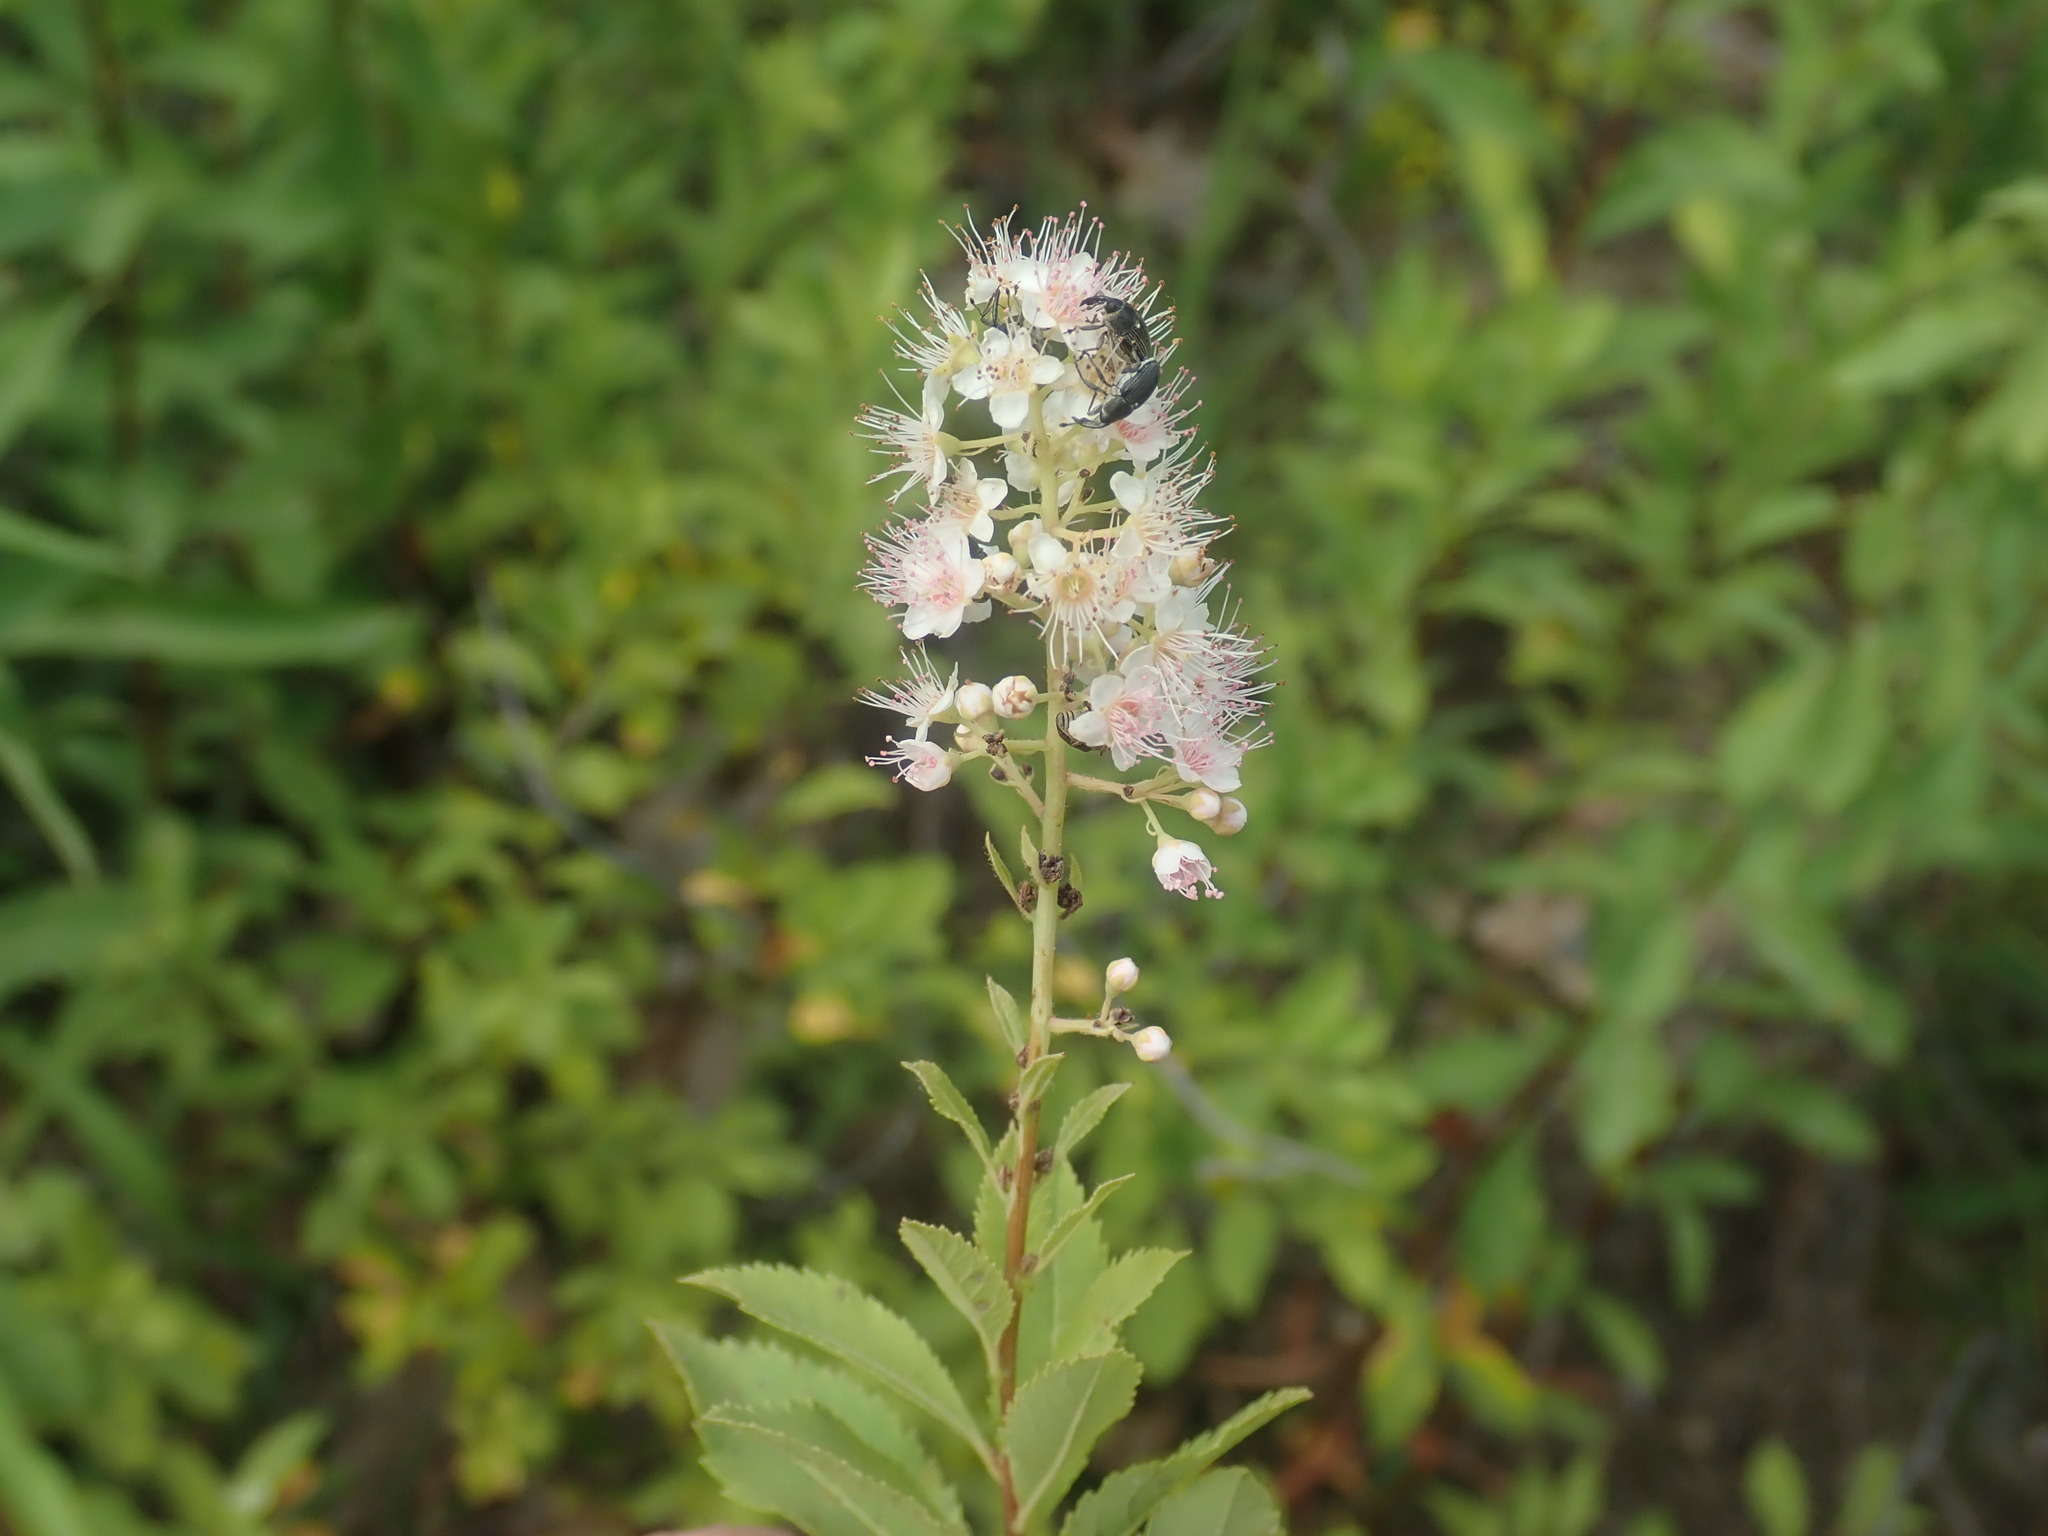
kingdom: Plantae
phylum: Tracheophyta
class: Magnoliopsida
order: Rosales
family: Rosaceae
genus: Spiraea
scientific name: Spiraea alba
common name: Pale bridewort
